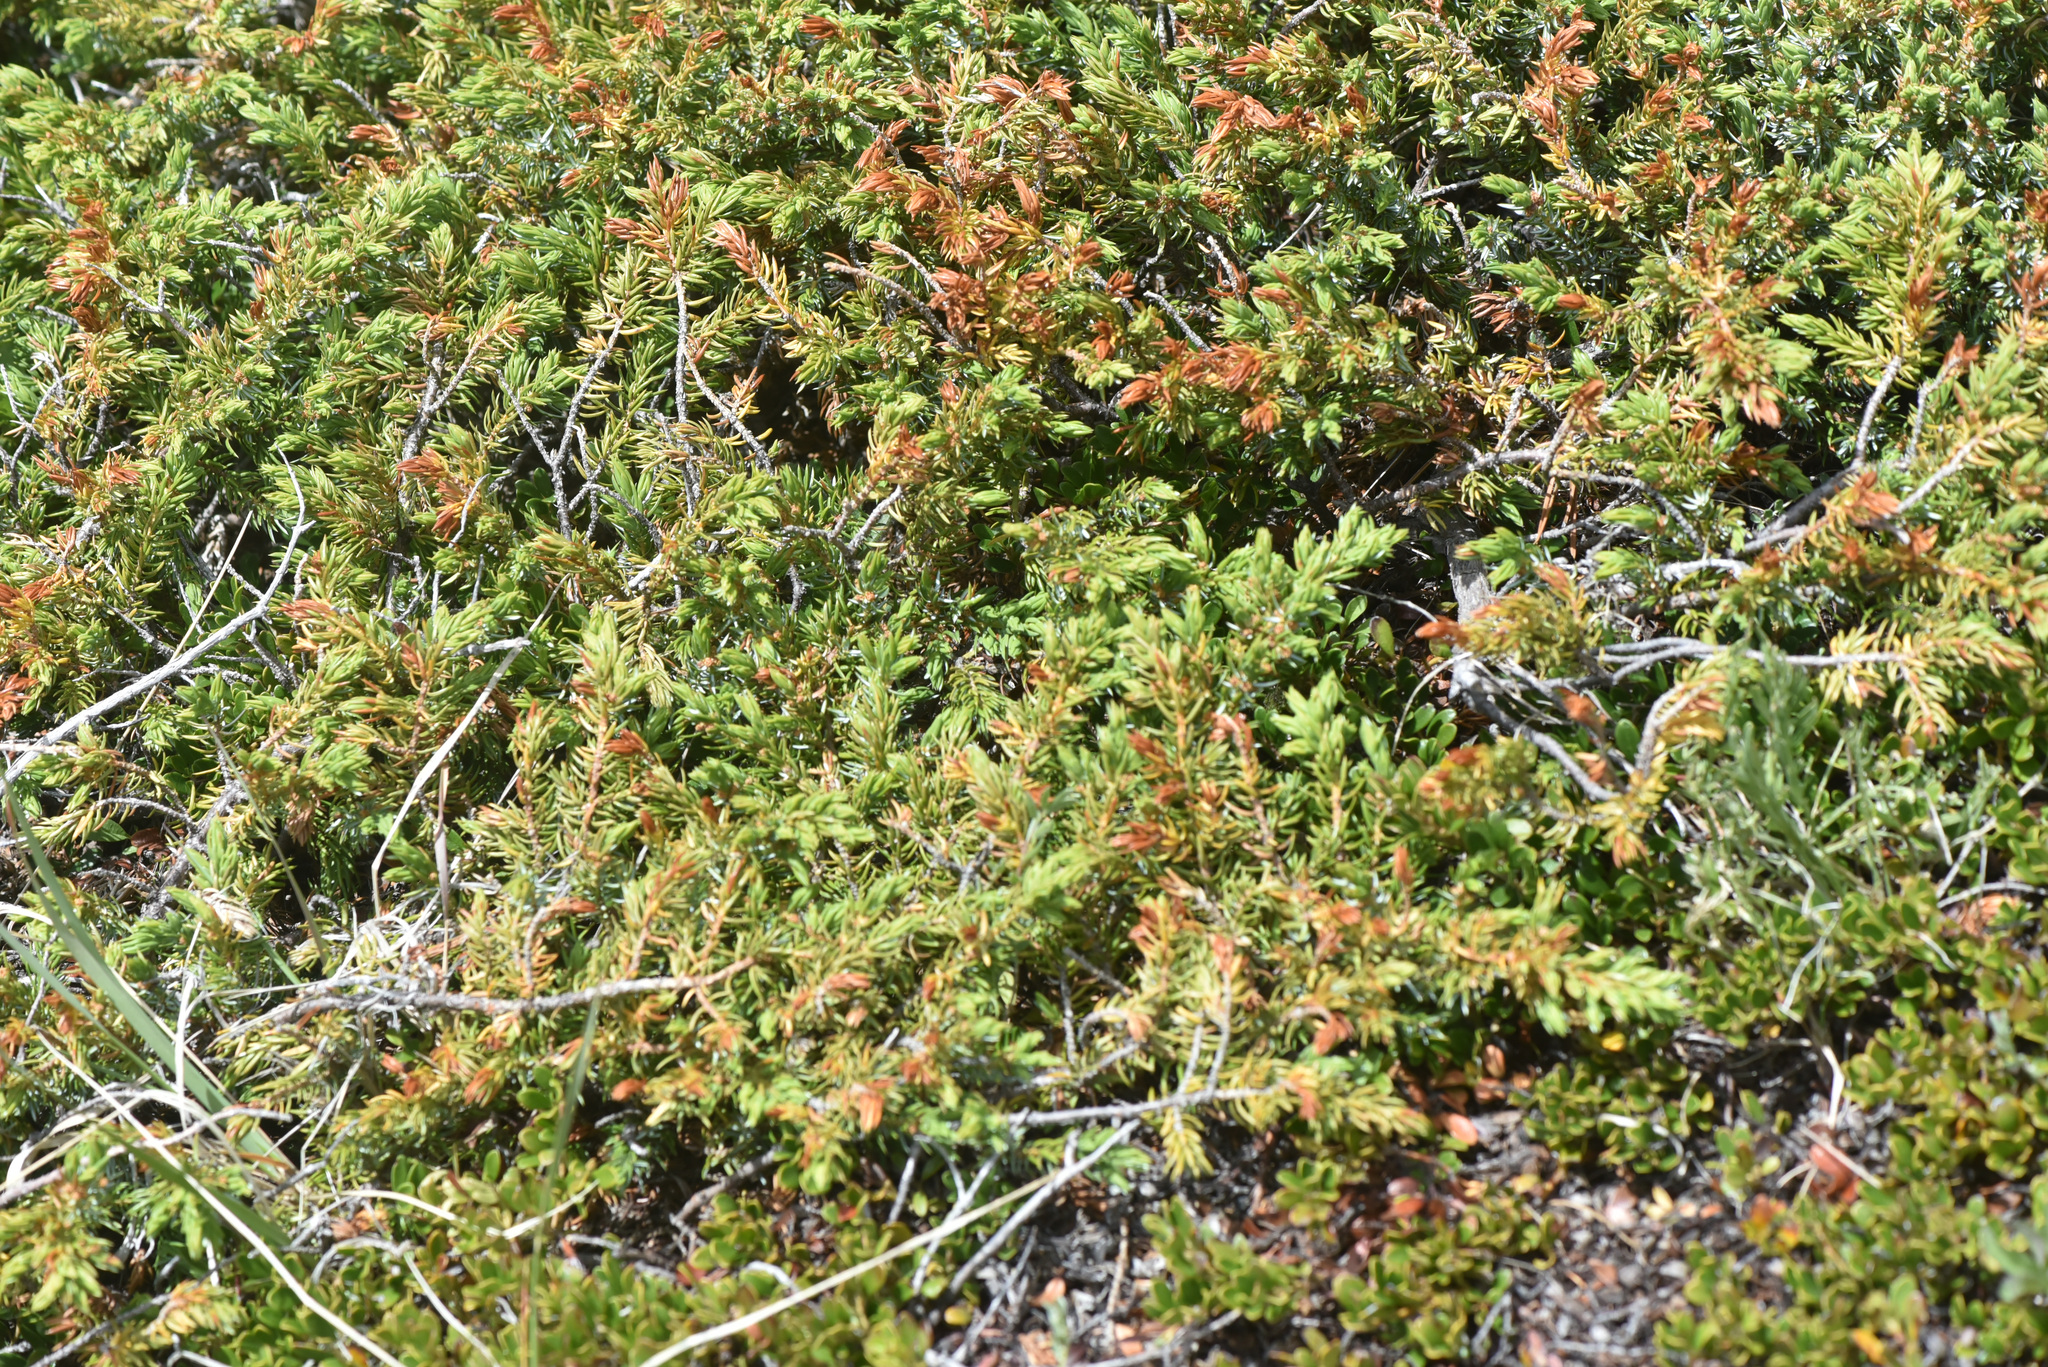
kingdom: Plantae
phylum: Tracheophyta
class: Pinopsida
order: Pinales
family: Cupressaceae
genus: Juniperus
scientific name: Juniperus communis
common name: Common juniper
